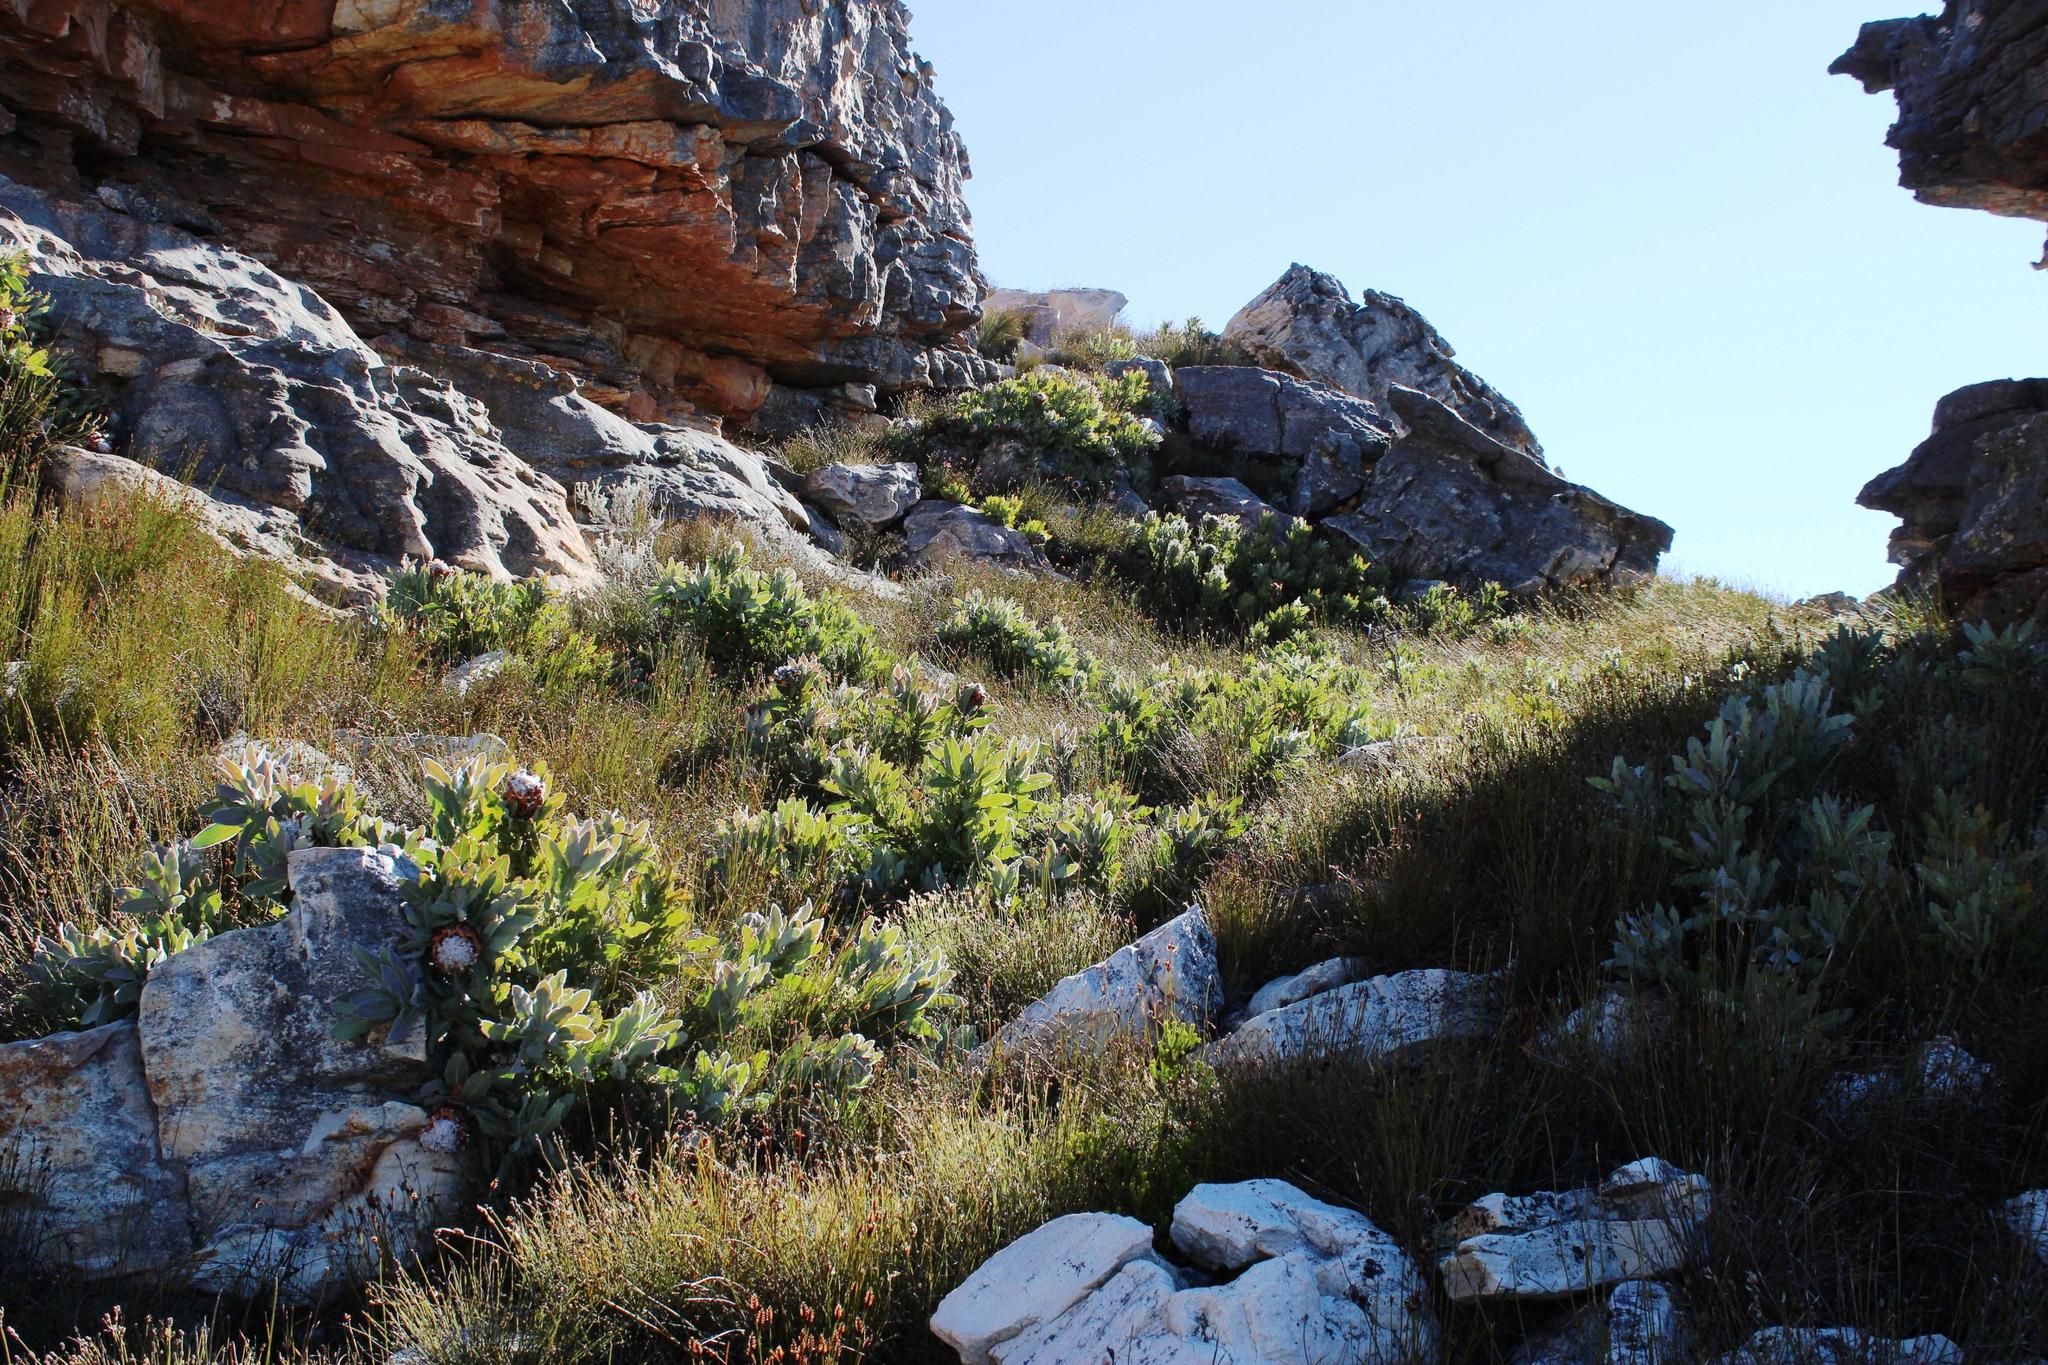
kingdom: Plantae
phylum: Tracheophyta
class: Magnoliopsida
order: Proteales
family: Proteaceae
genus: Protea
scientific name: Protea magnifica
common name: Bearded sugarbush
